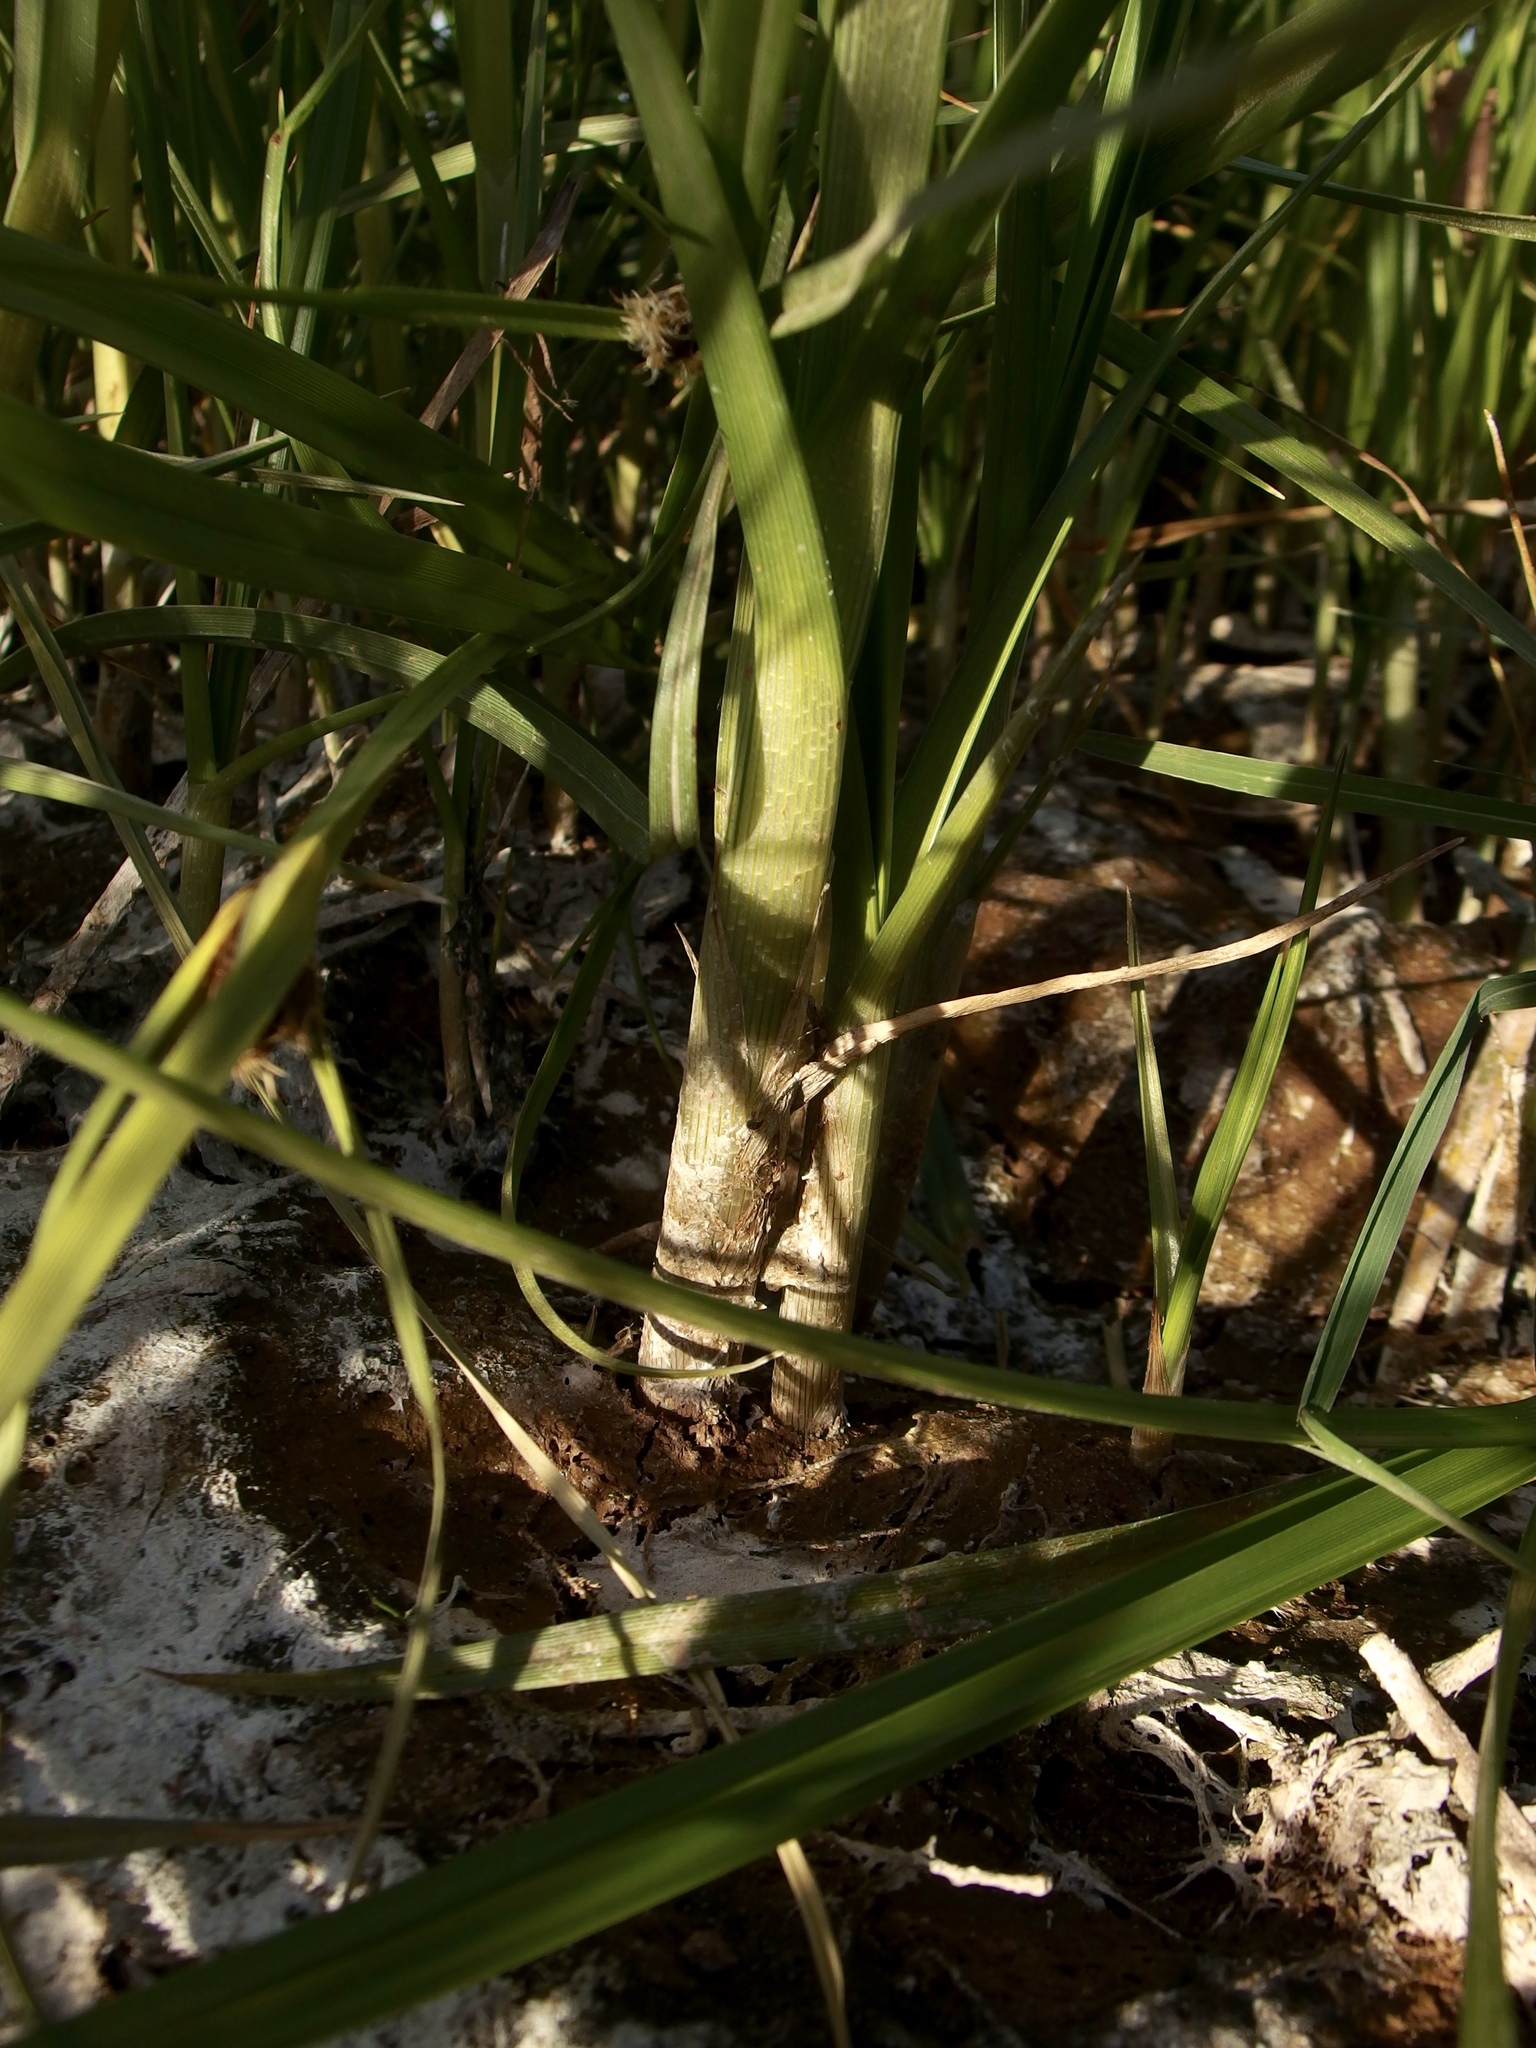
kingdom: Plantae
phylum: Tracheophyta
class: Liliopsida
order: Poales
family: Cyperaceae
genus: Bolboschoenus
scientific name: Bolboschoenus maritimus
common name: Sea club-rush
